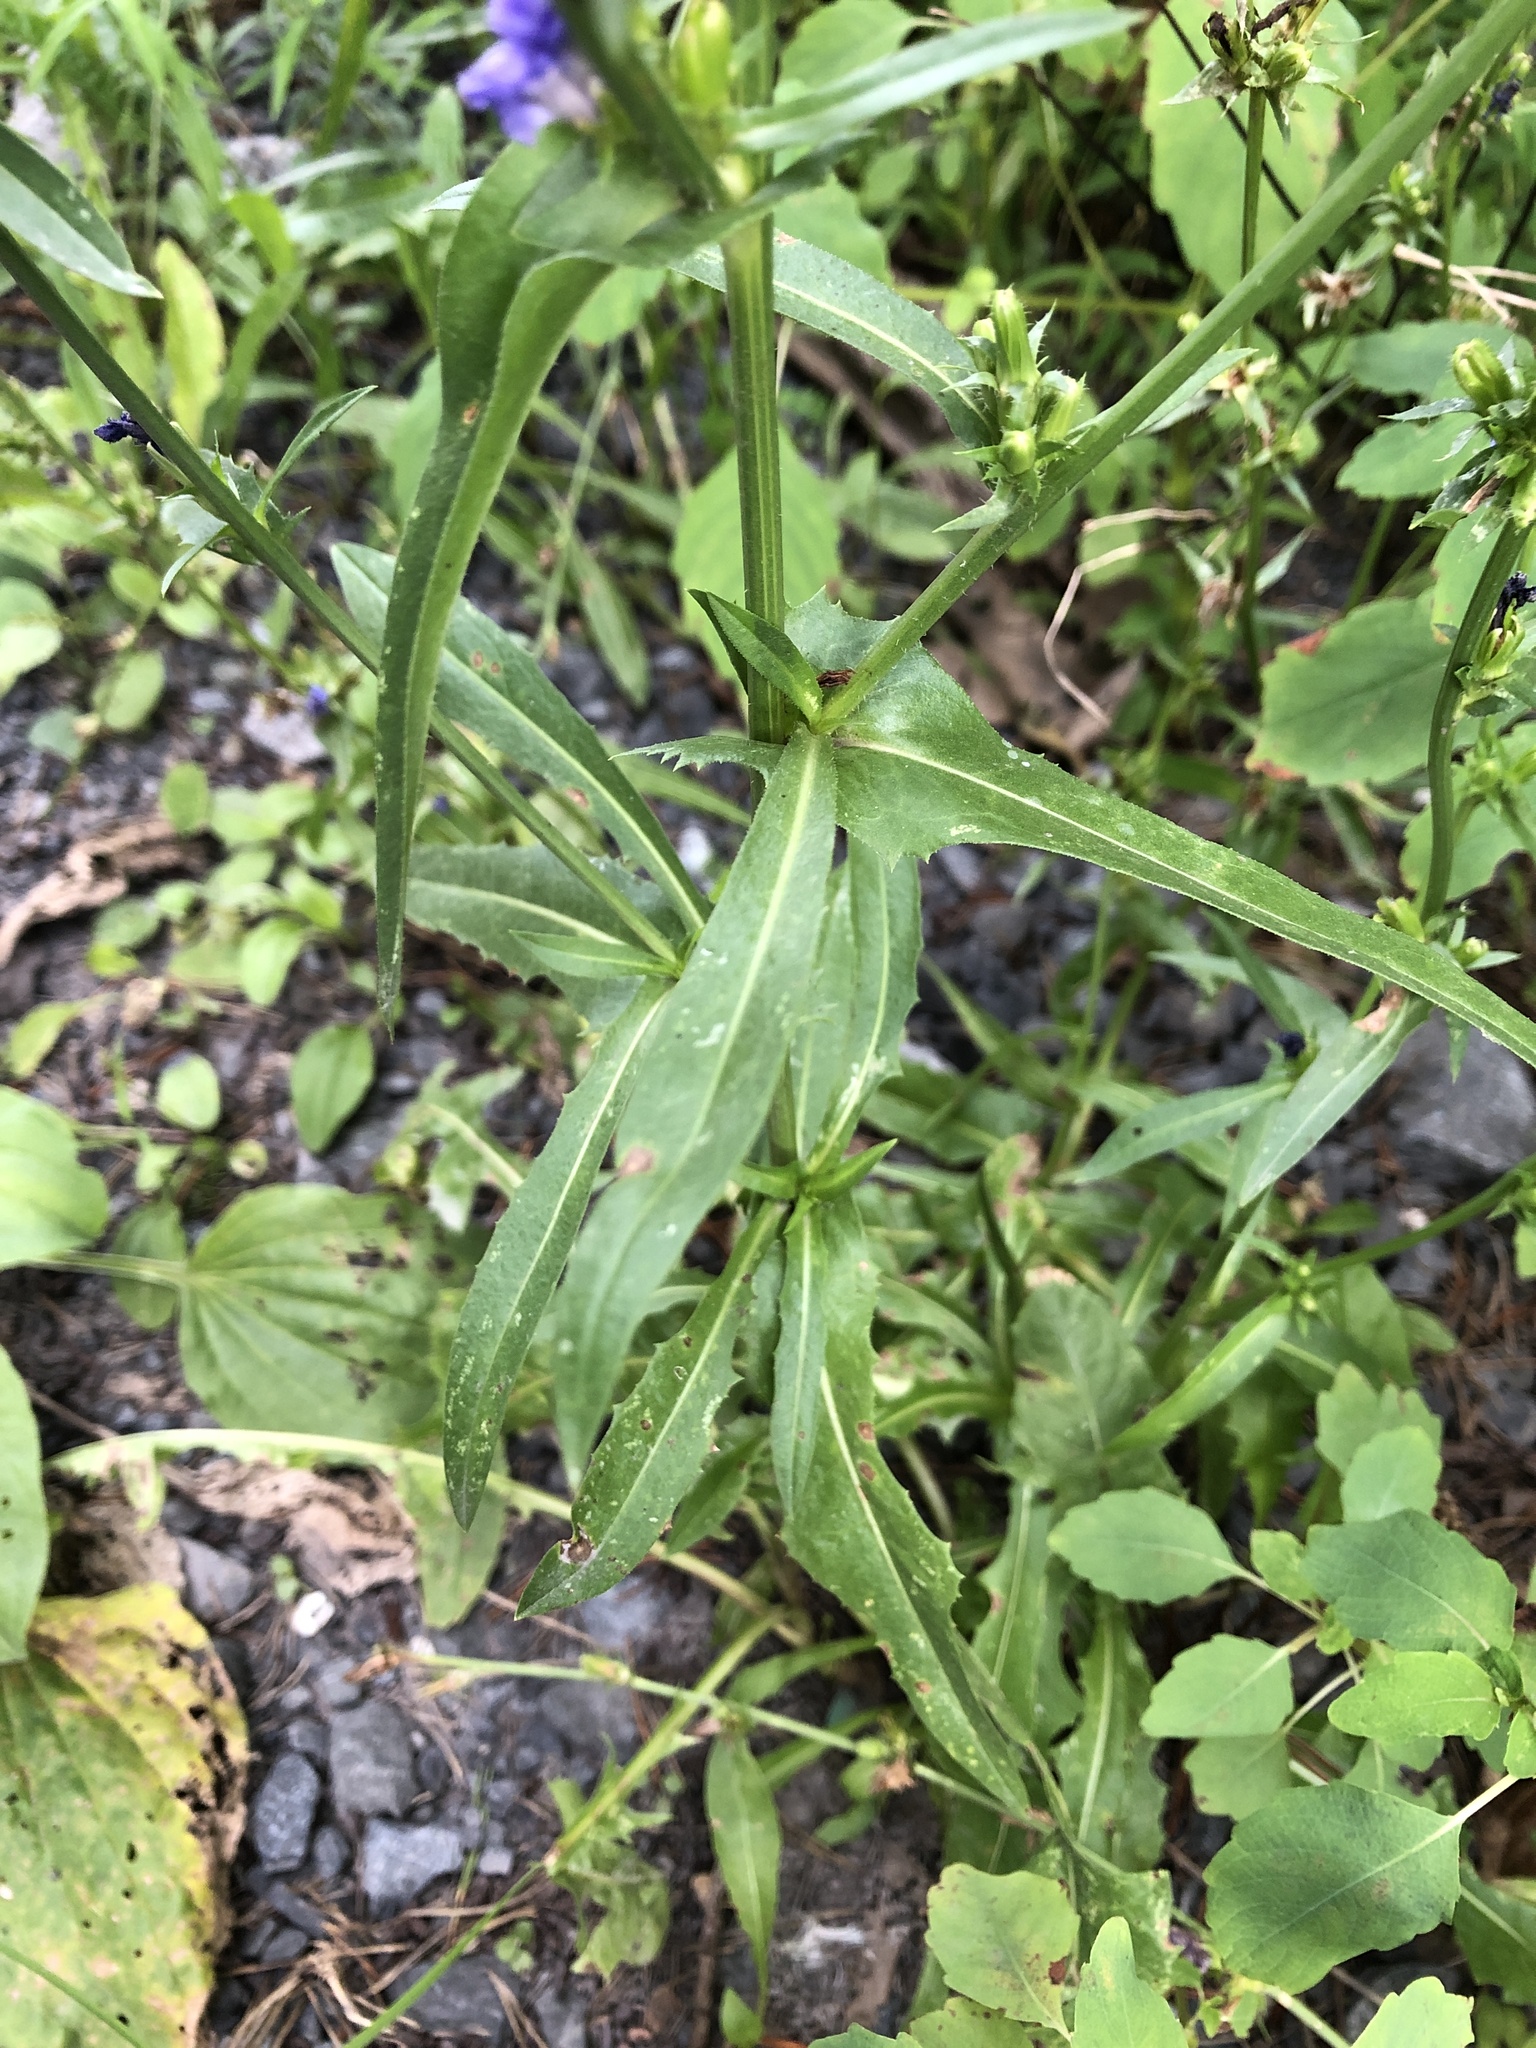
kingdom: Plantae
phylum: Tracheophyta
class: Magnoliopsida
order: Asterales
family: Asteraceae
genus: Cichorium
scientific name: Cichorium intybus
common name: Chicory
